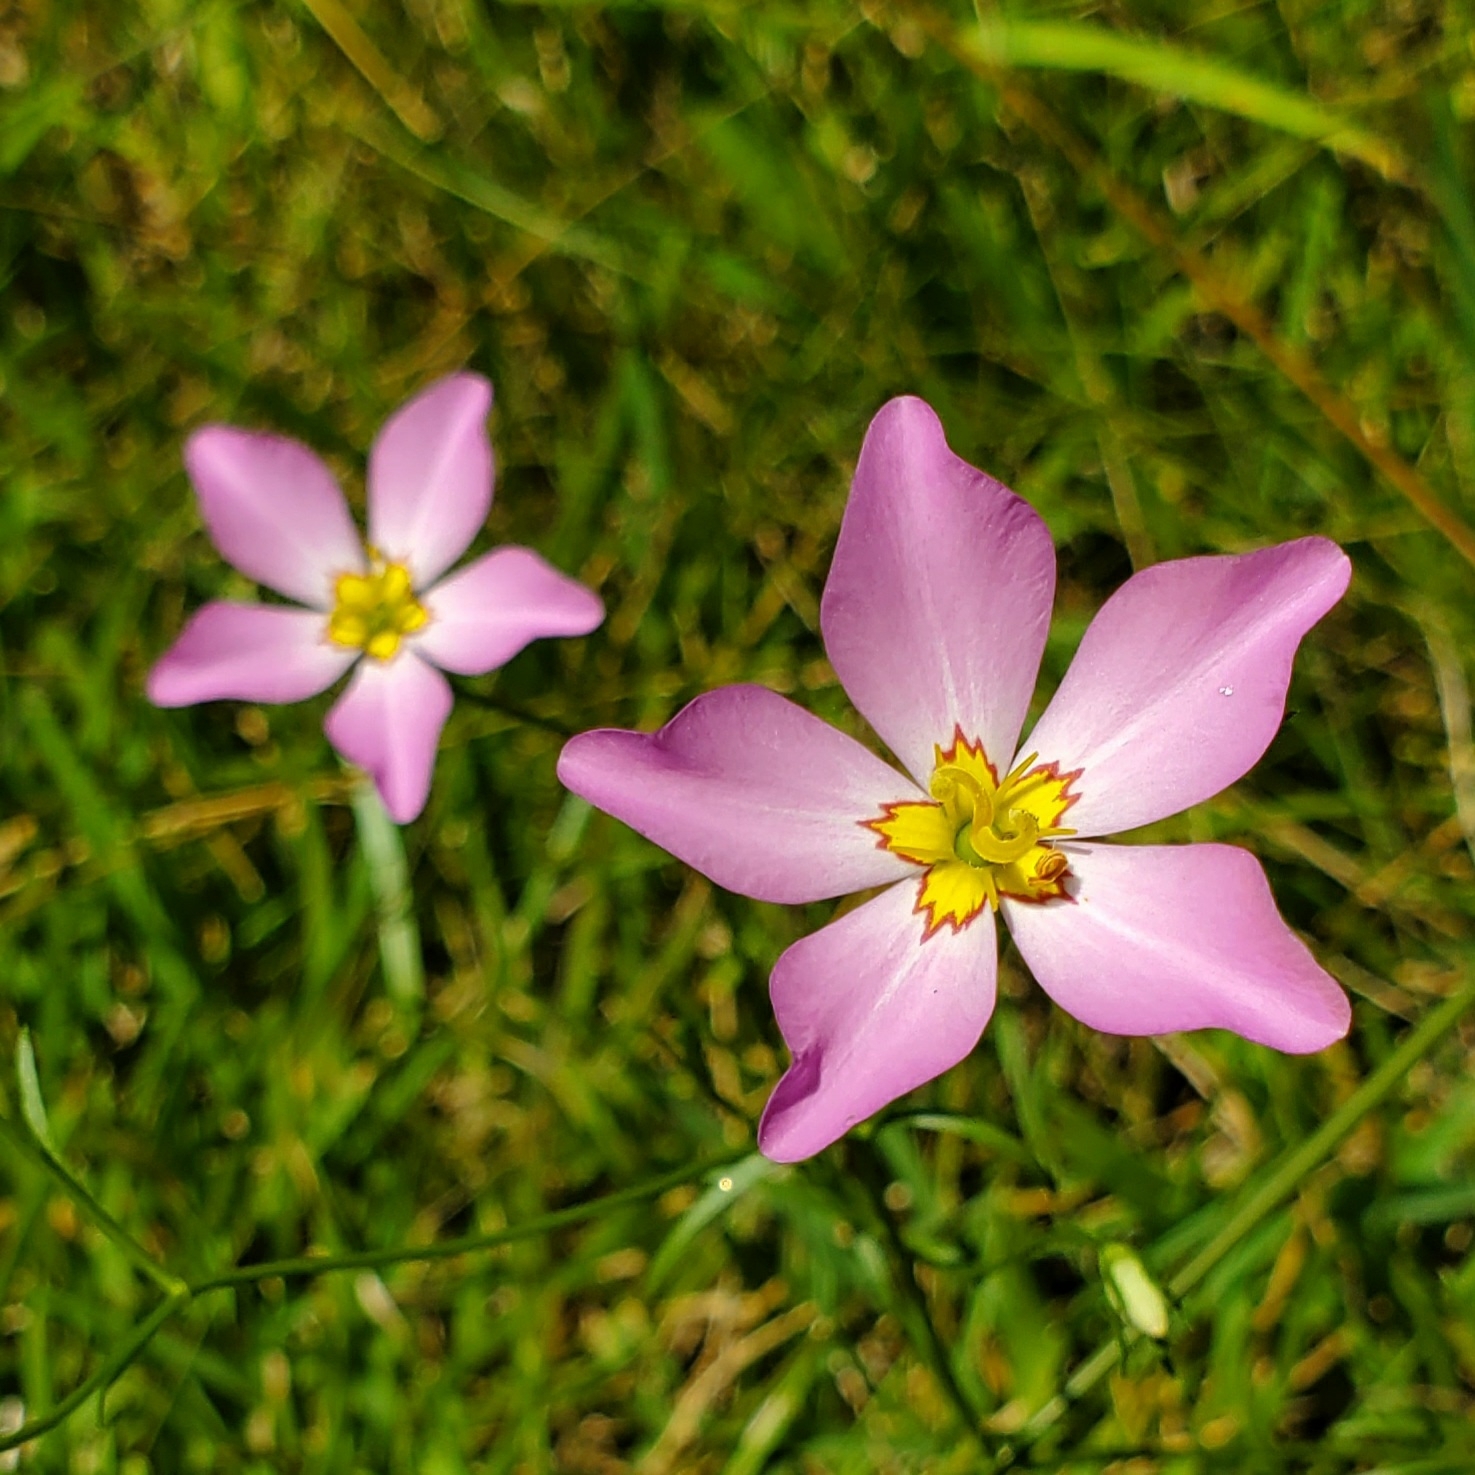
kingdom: Plantae
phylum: Tracheophyta
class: Magnoliopsida
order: Gentianales
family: Gentianaceae
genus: Sabatia
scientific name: Sabatia stellaris
